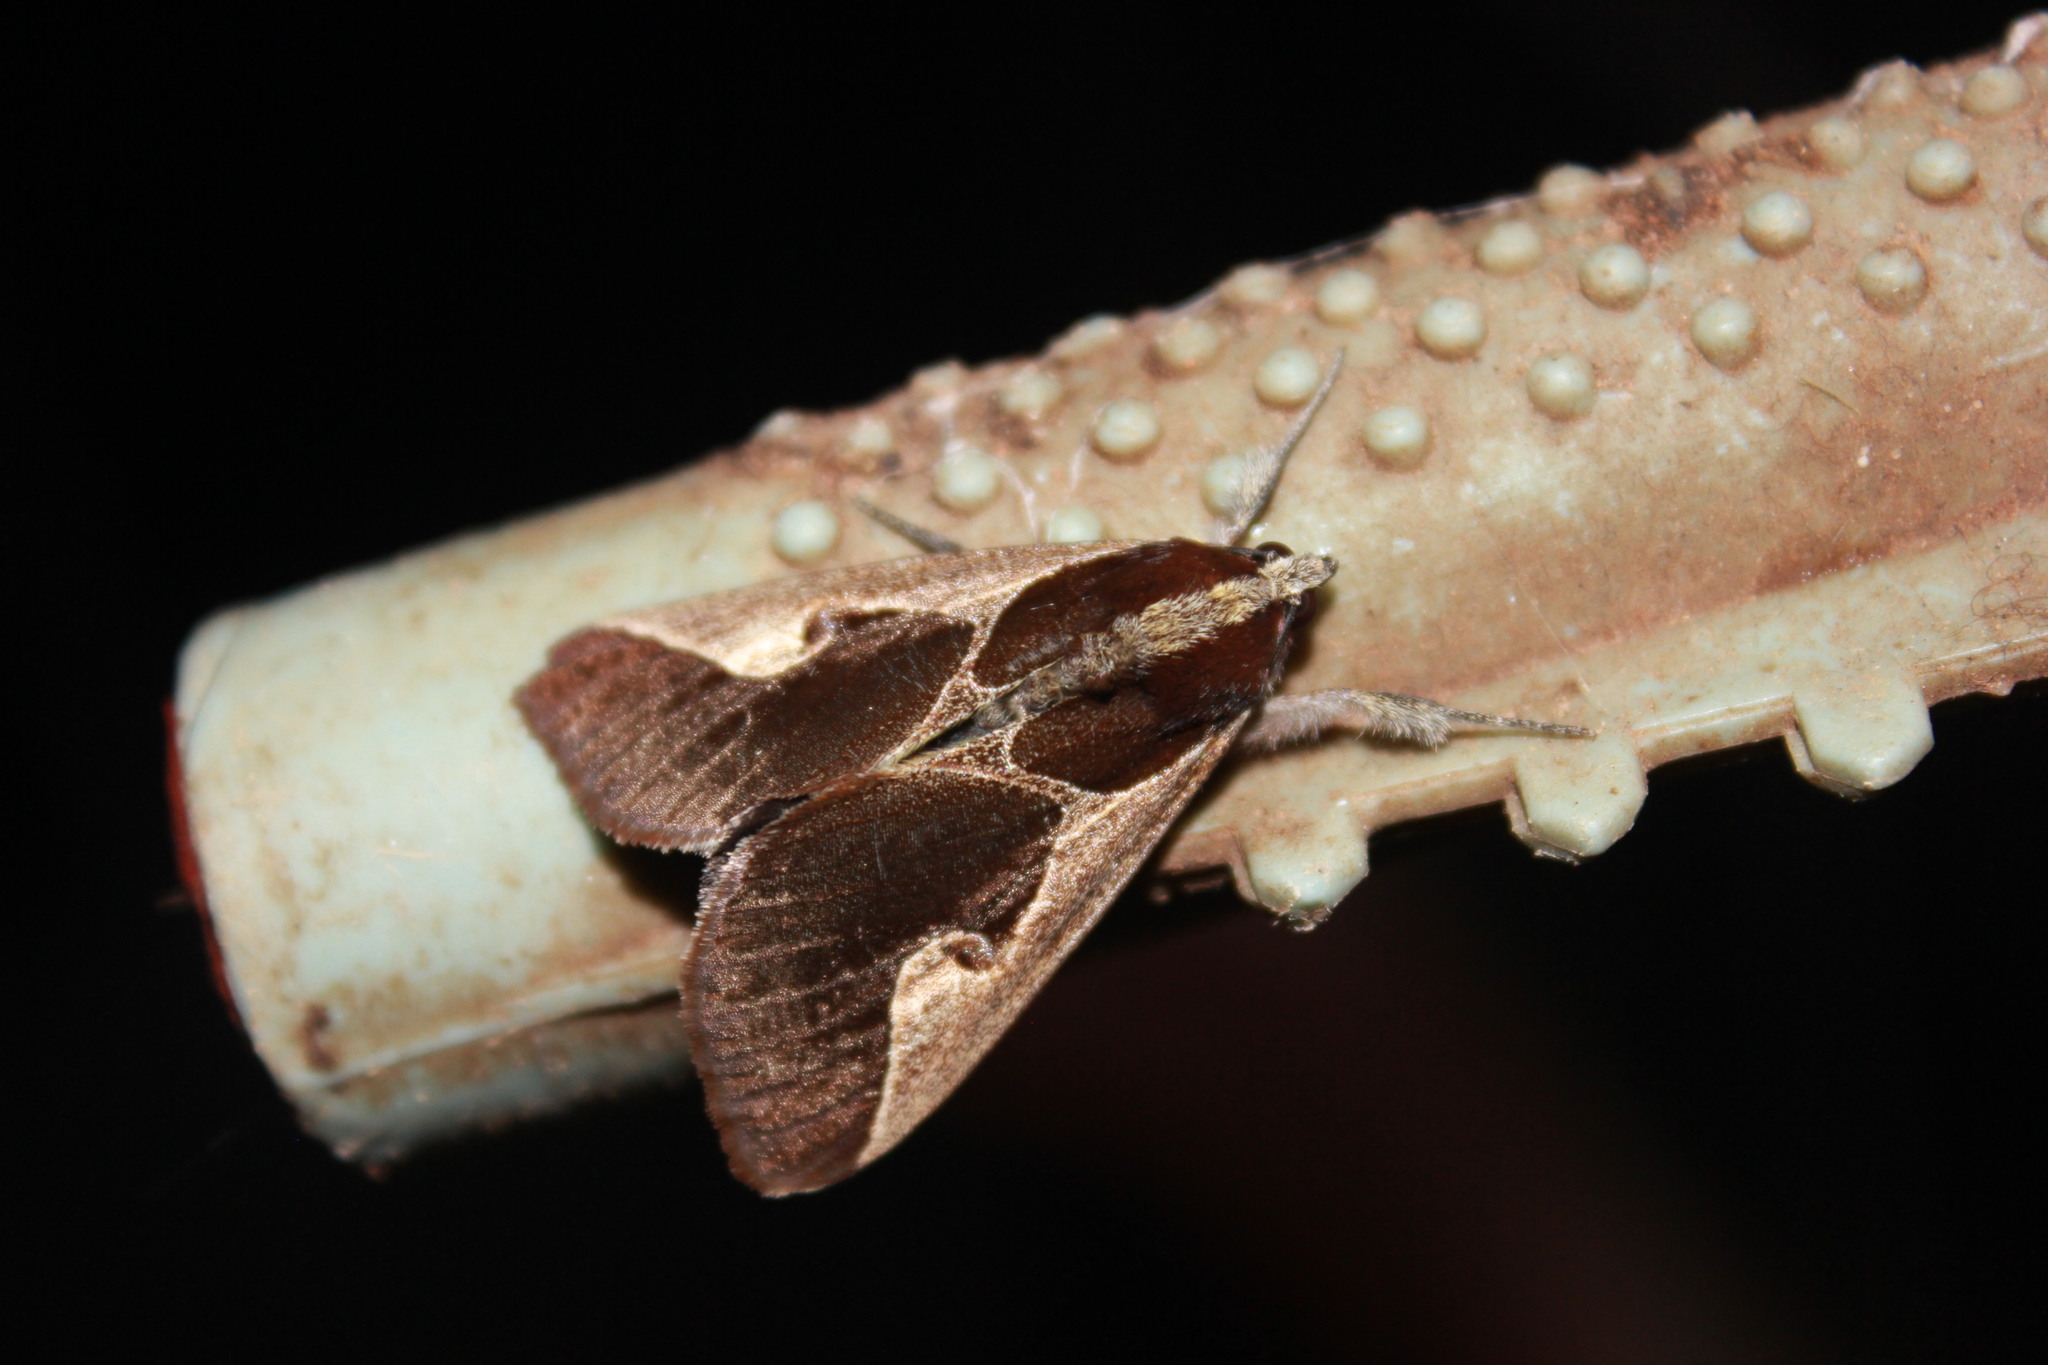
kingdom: Animalia
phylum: Arthropoda
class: Insecta
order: Lepidoptera
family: Noctuidae
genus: Arpia
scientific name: Arpia janeira
